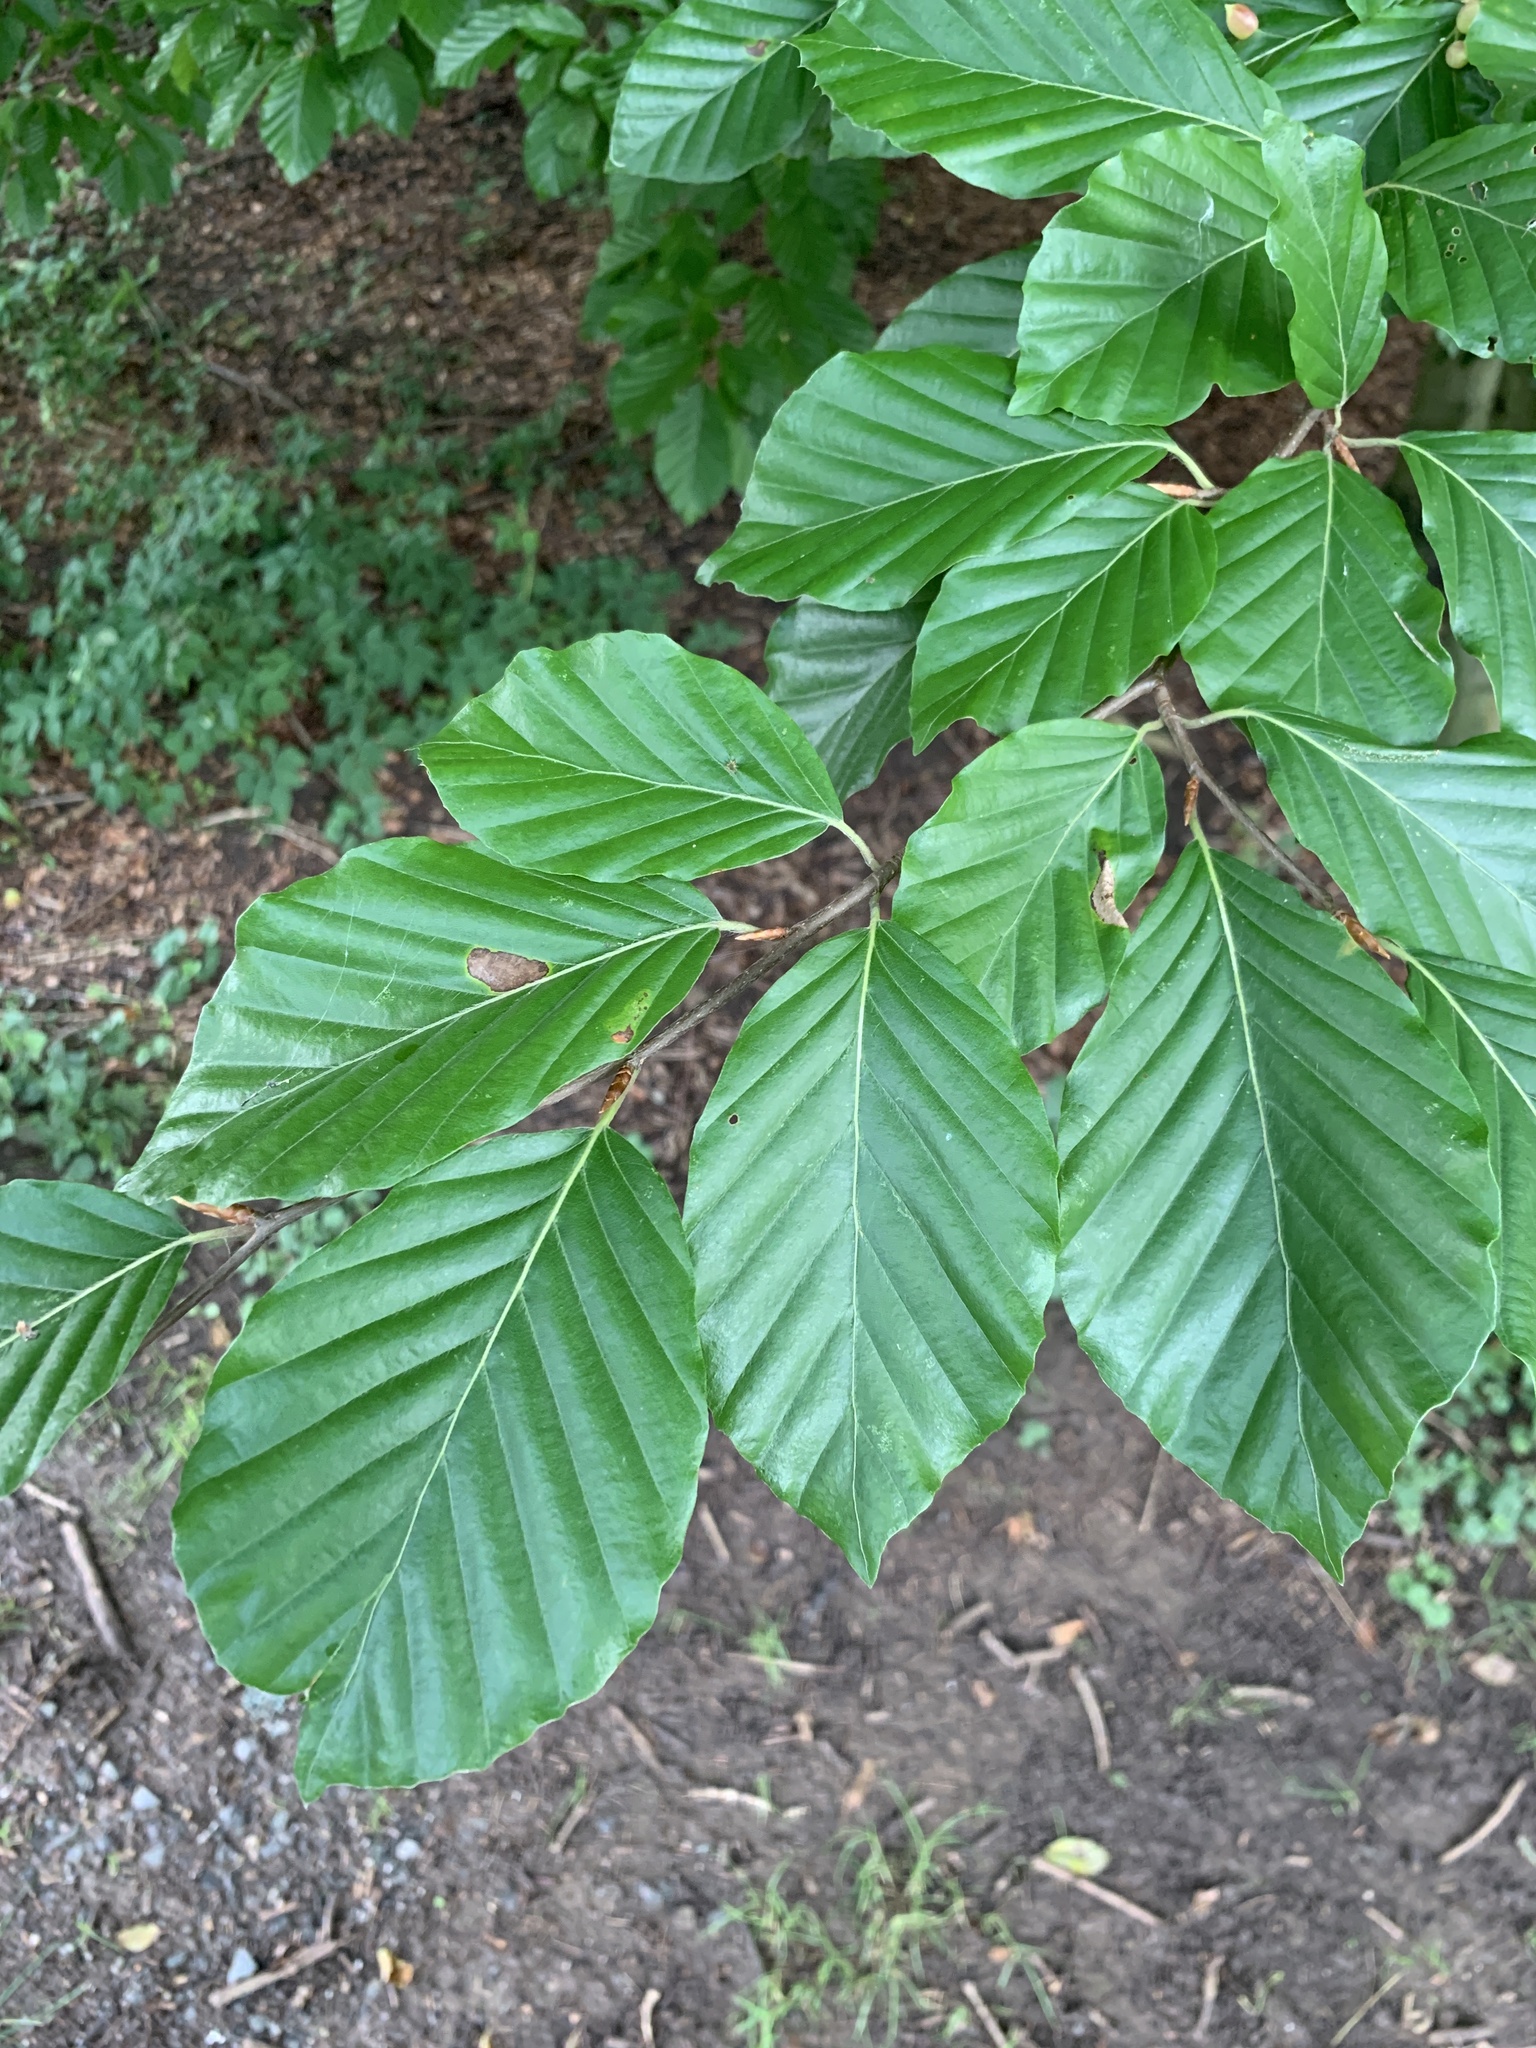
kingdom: Plantae
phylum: Tracheophyta
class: Magnoliopsida
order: Fagales
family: Fagaceae
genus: Fagus
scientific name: Fagus sylvatica
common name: Beech
